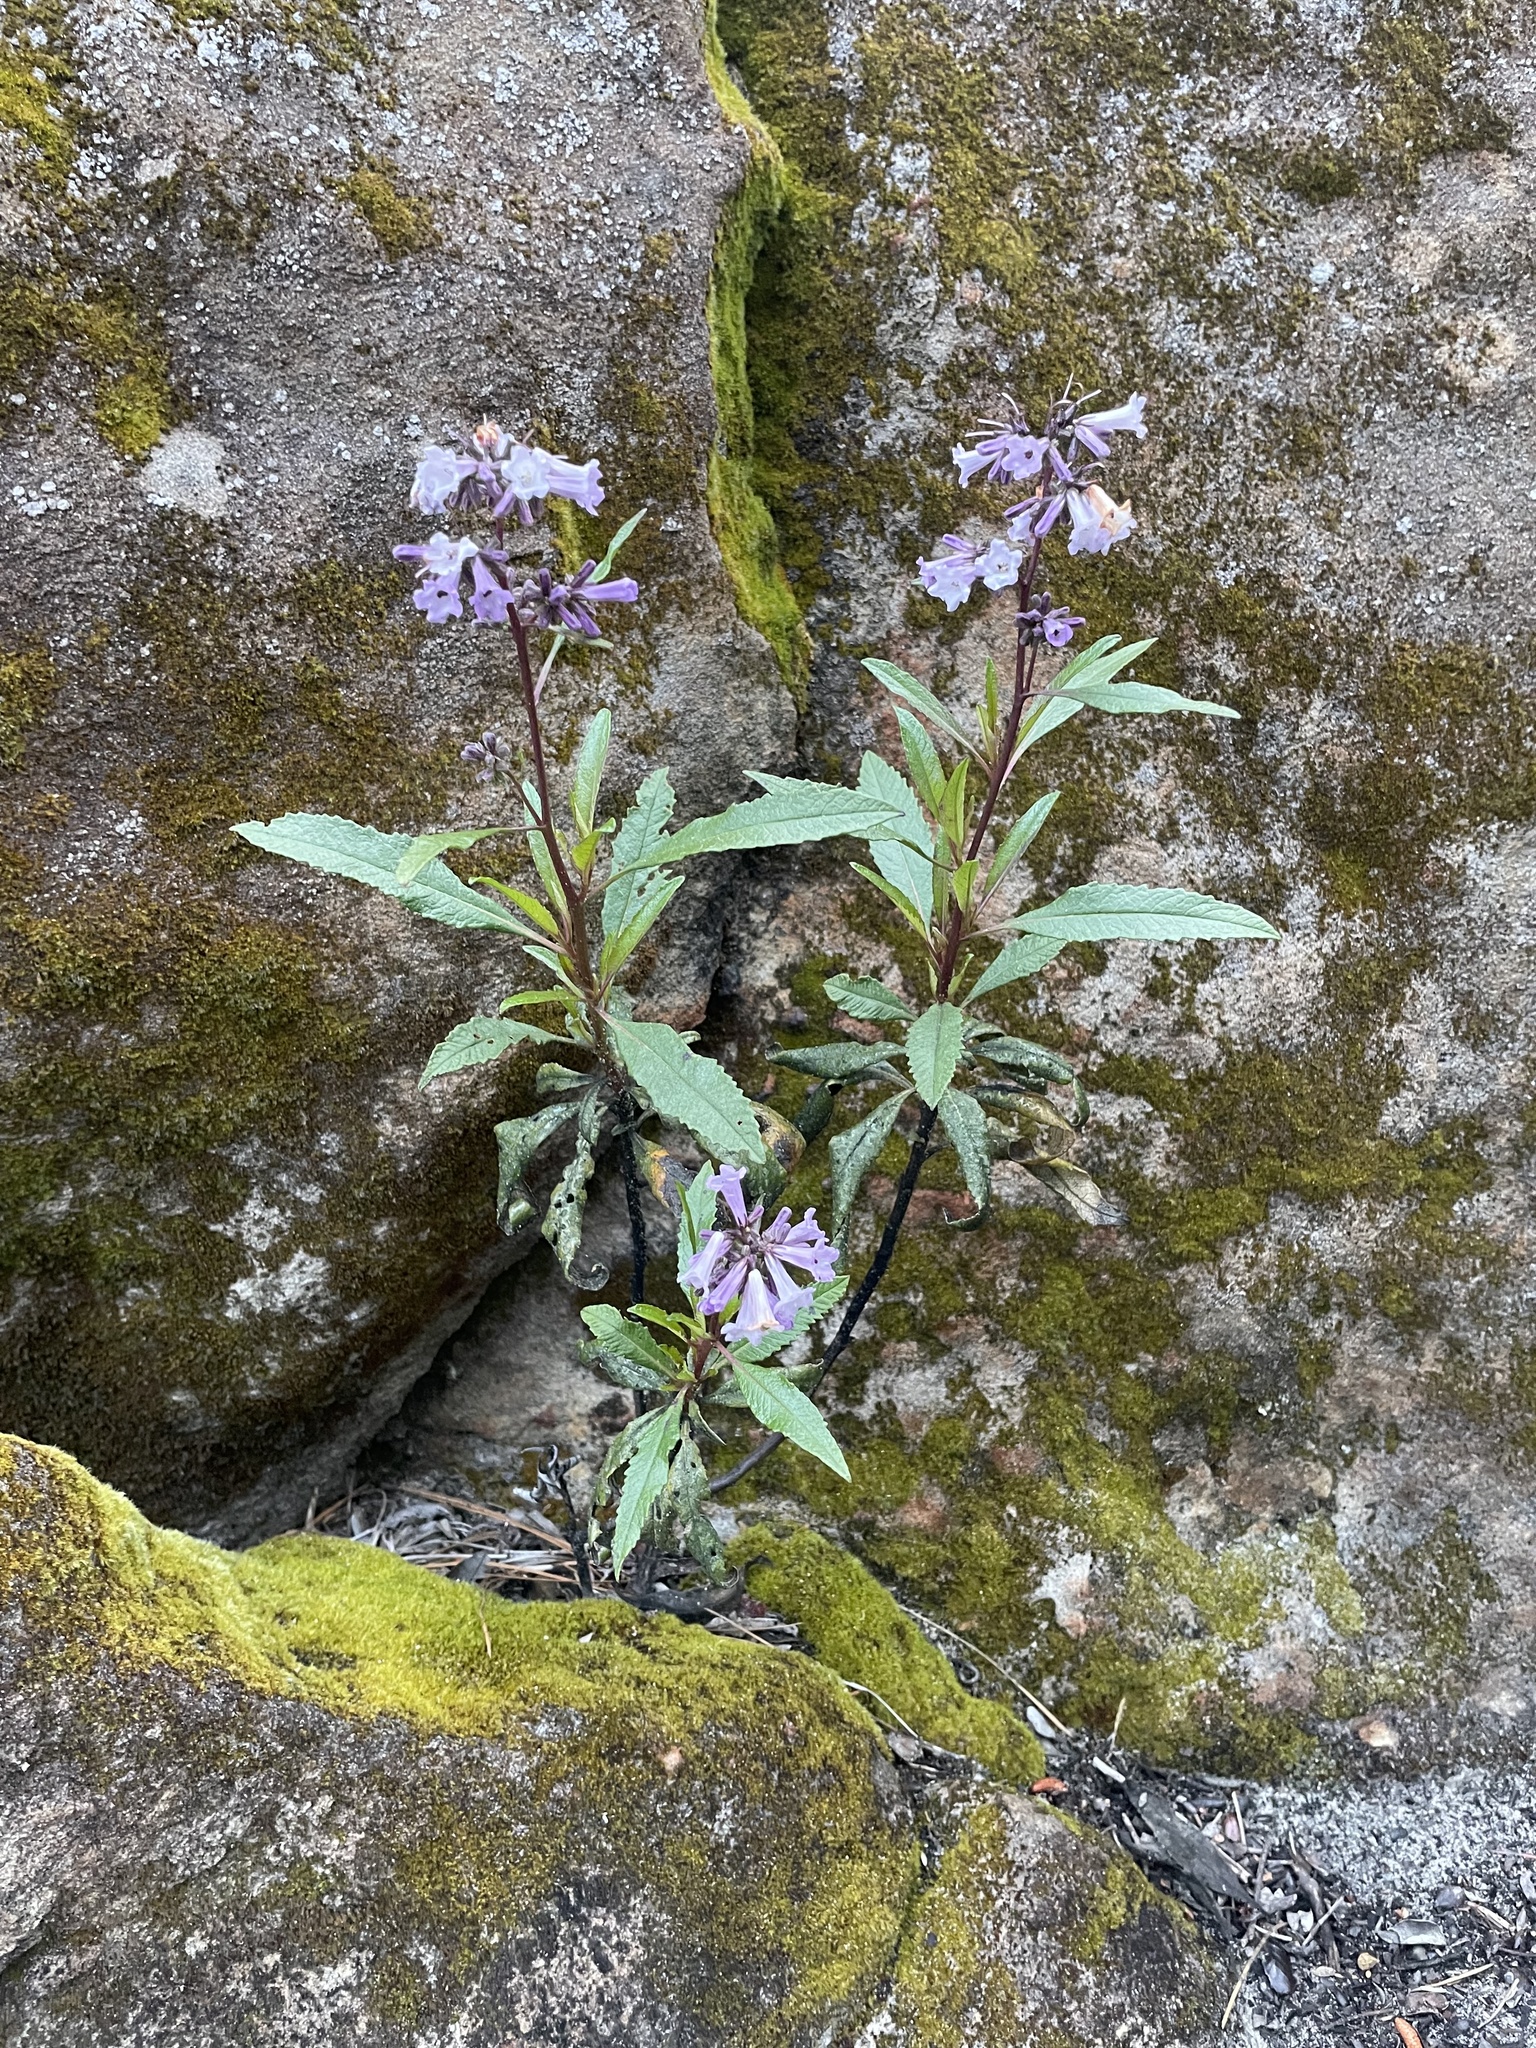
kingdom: Plantae
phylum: Tracheophyta
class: Magnoliopsida
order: Boraginales
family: Namaceae
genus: Eriodictyon
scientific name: Eriodictyon californicum
